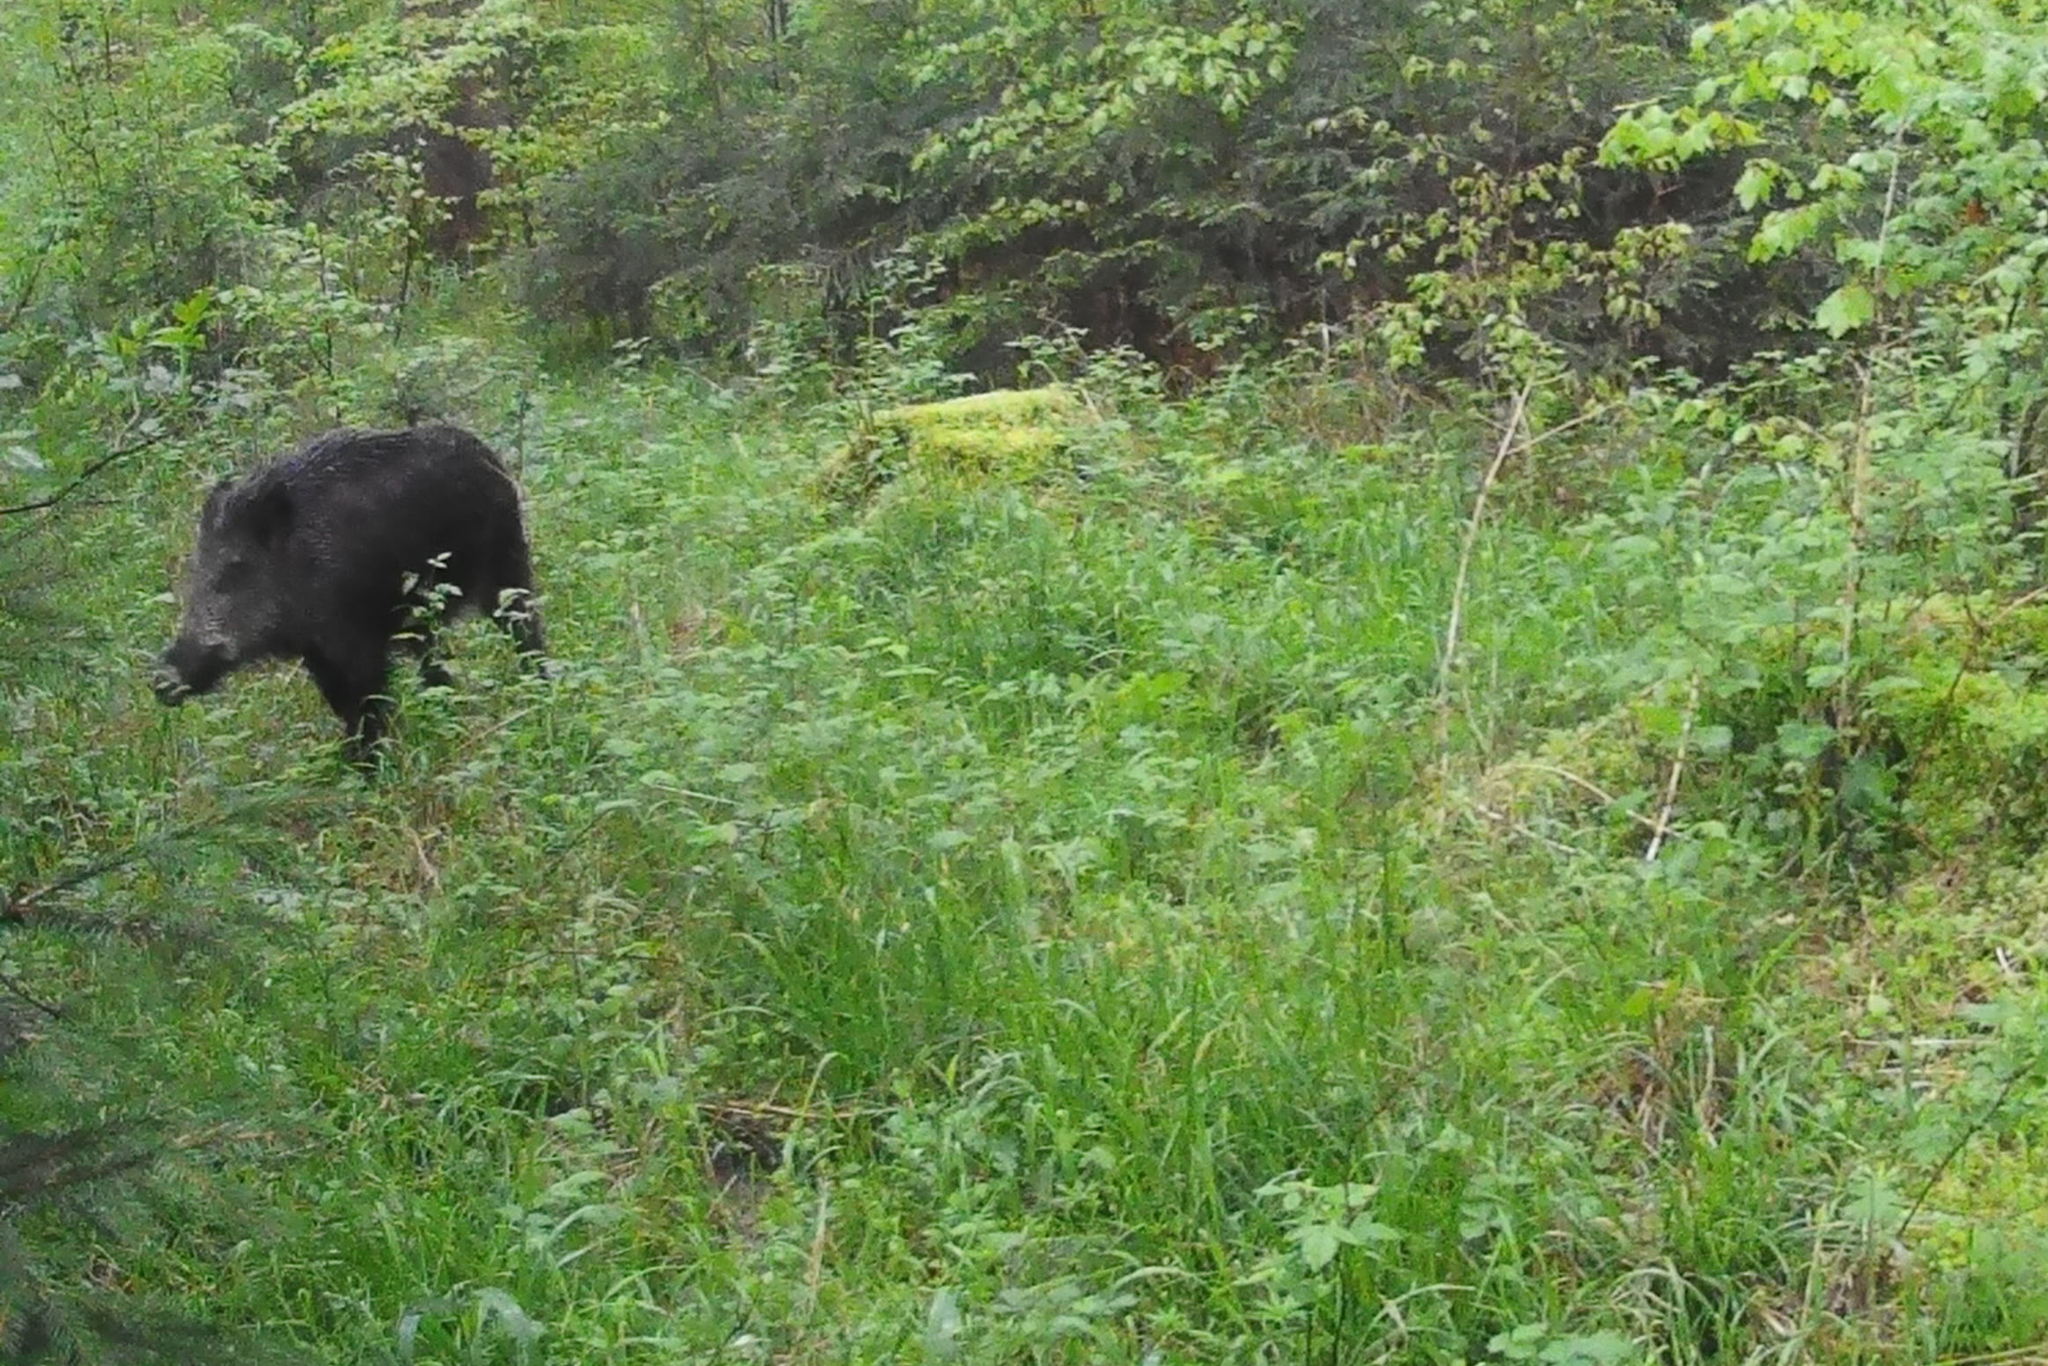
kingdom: Animalia
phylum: Chordata
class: Mammalia
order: Artiodactyla
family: Suidae
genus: Sus
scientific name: Sus scrofa
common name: Wild boar
